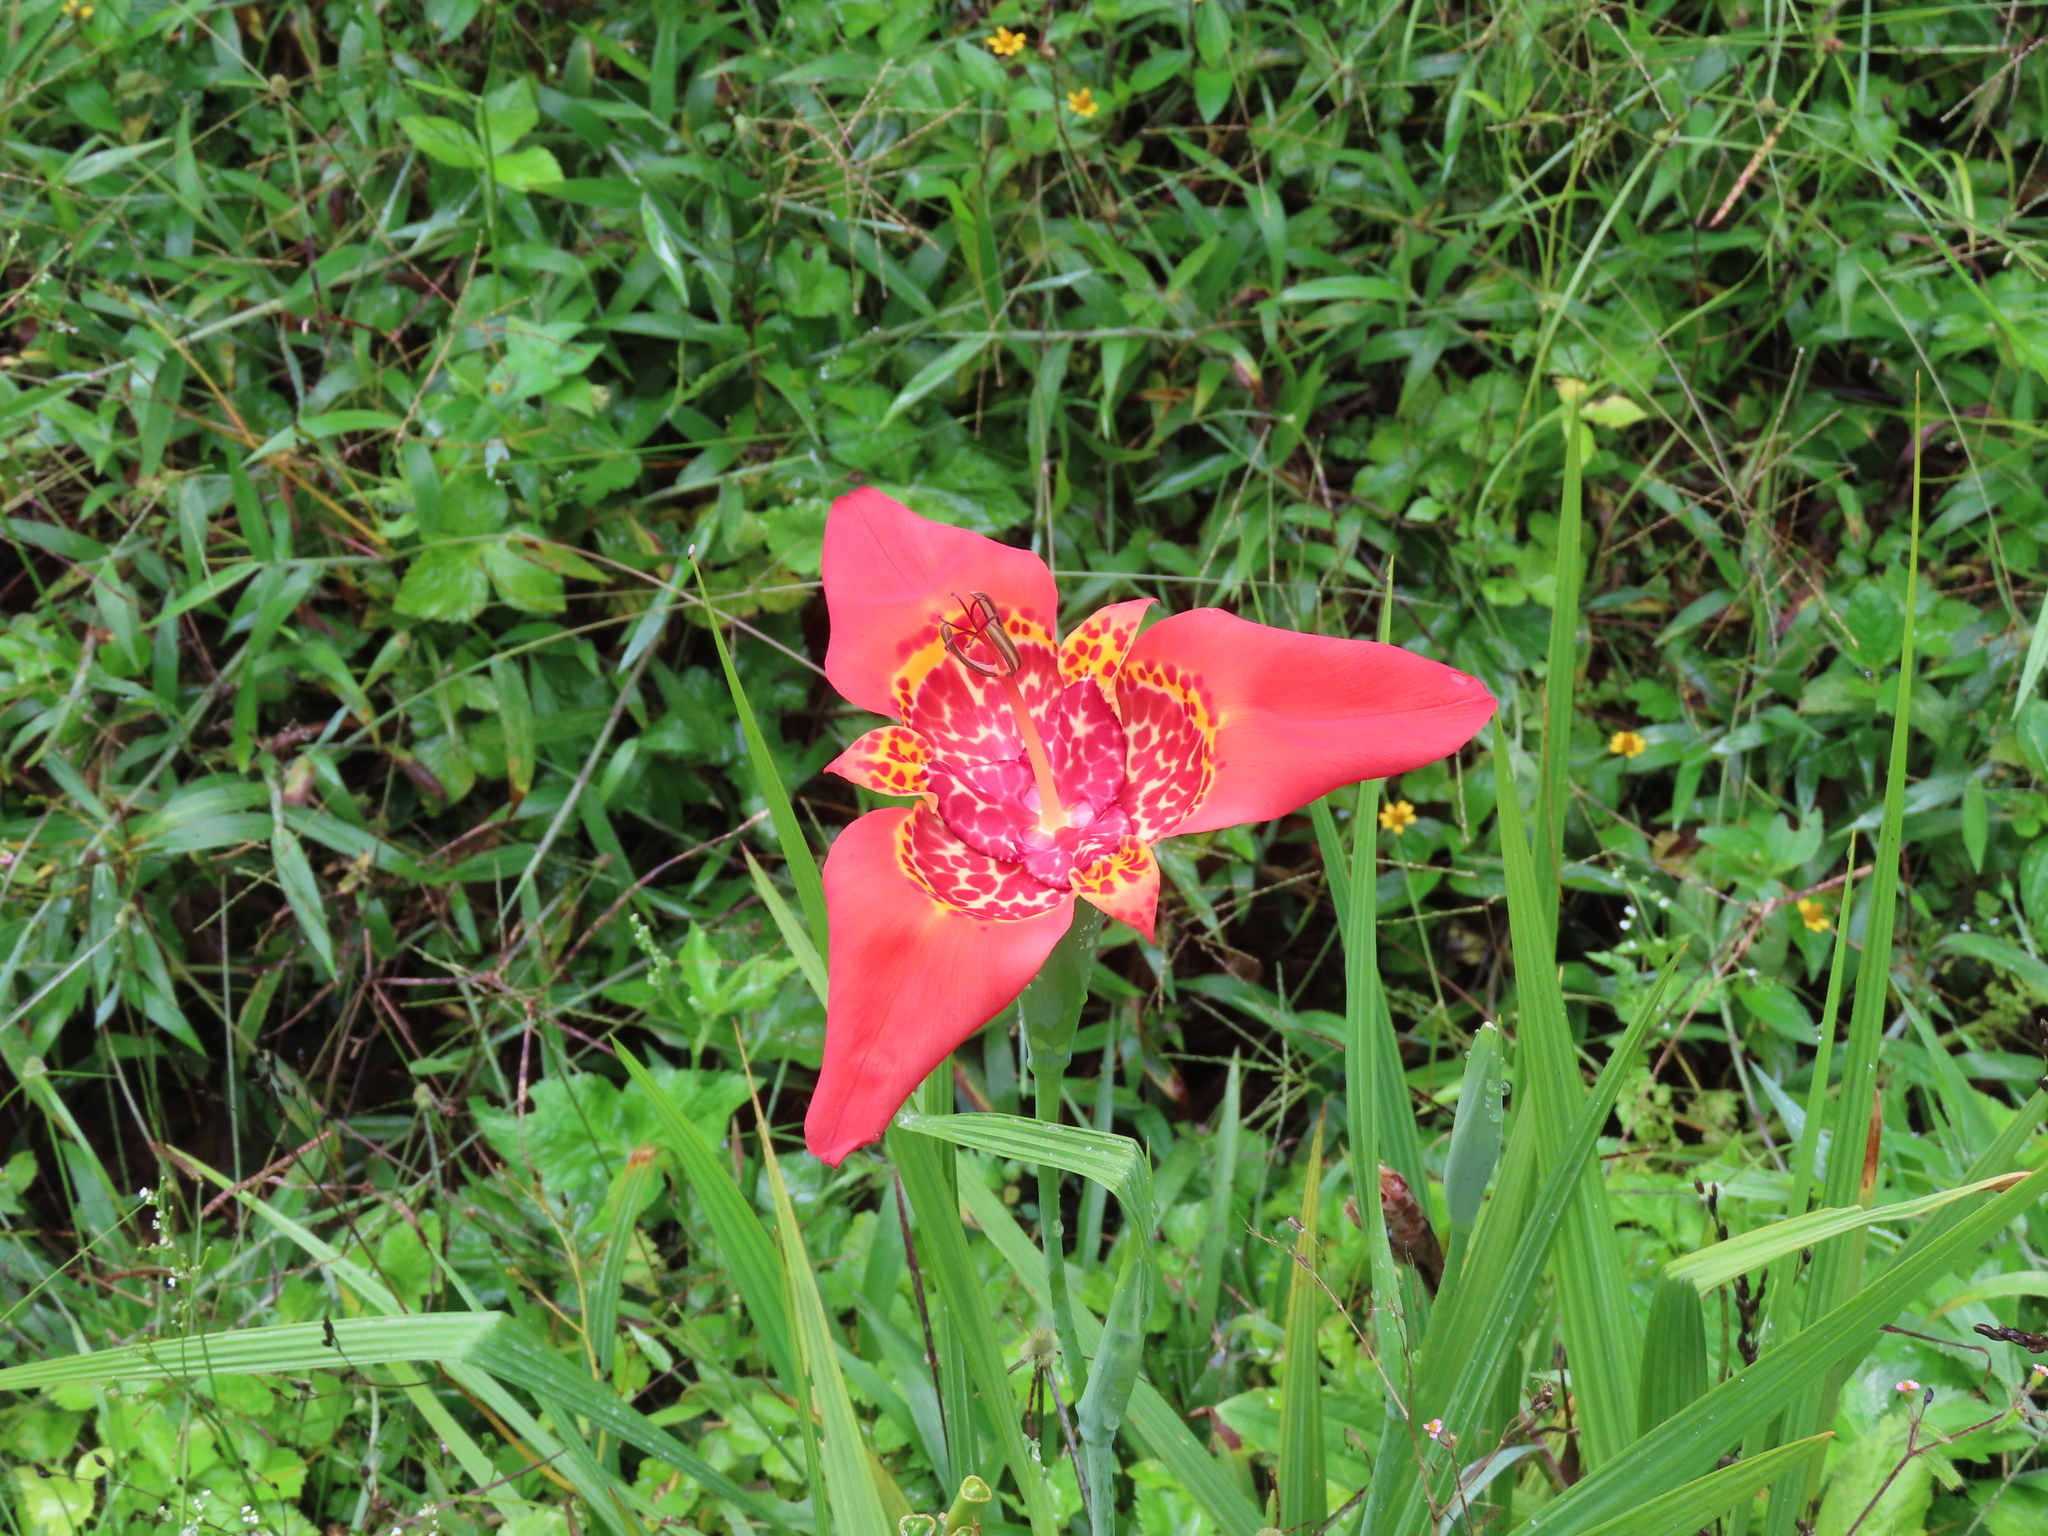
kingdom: Plantae
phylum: Tracheophyta
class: Liliopsida
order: Asparagales
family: Iridaceae
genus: Tigridia
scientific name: Tigridia pavonia
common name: Peacock-flower
